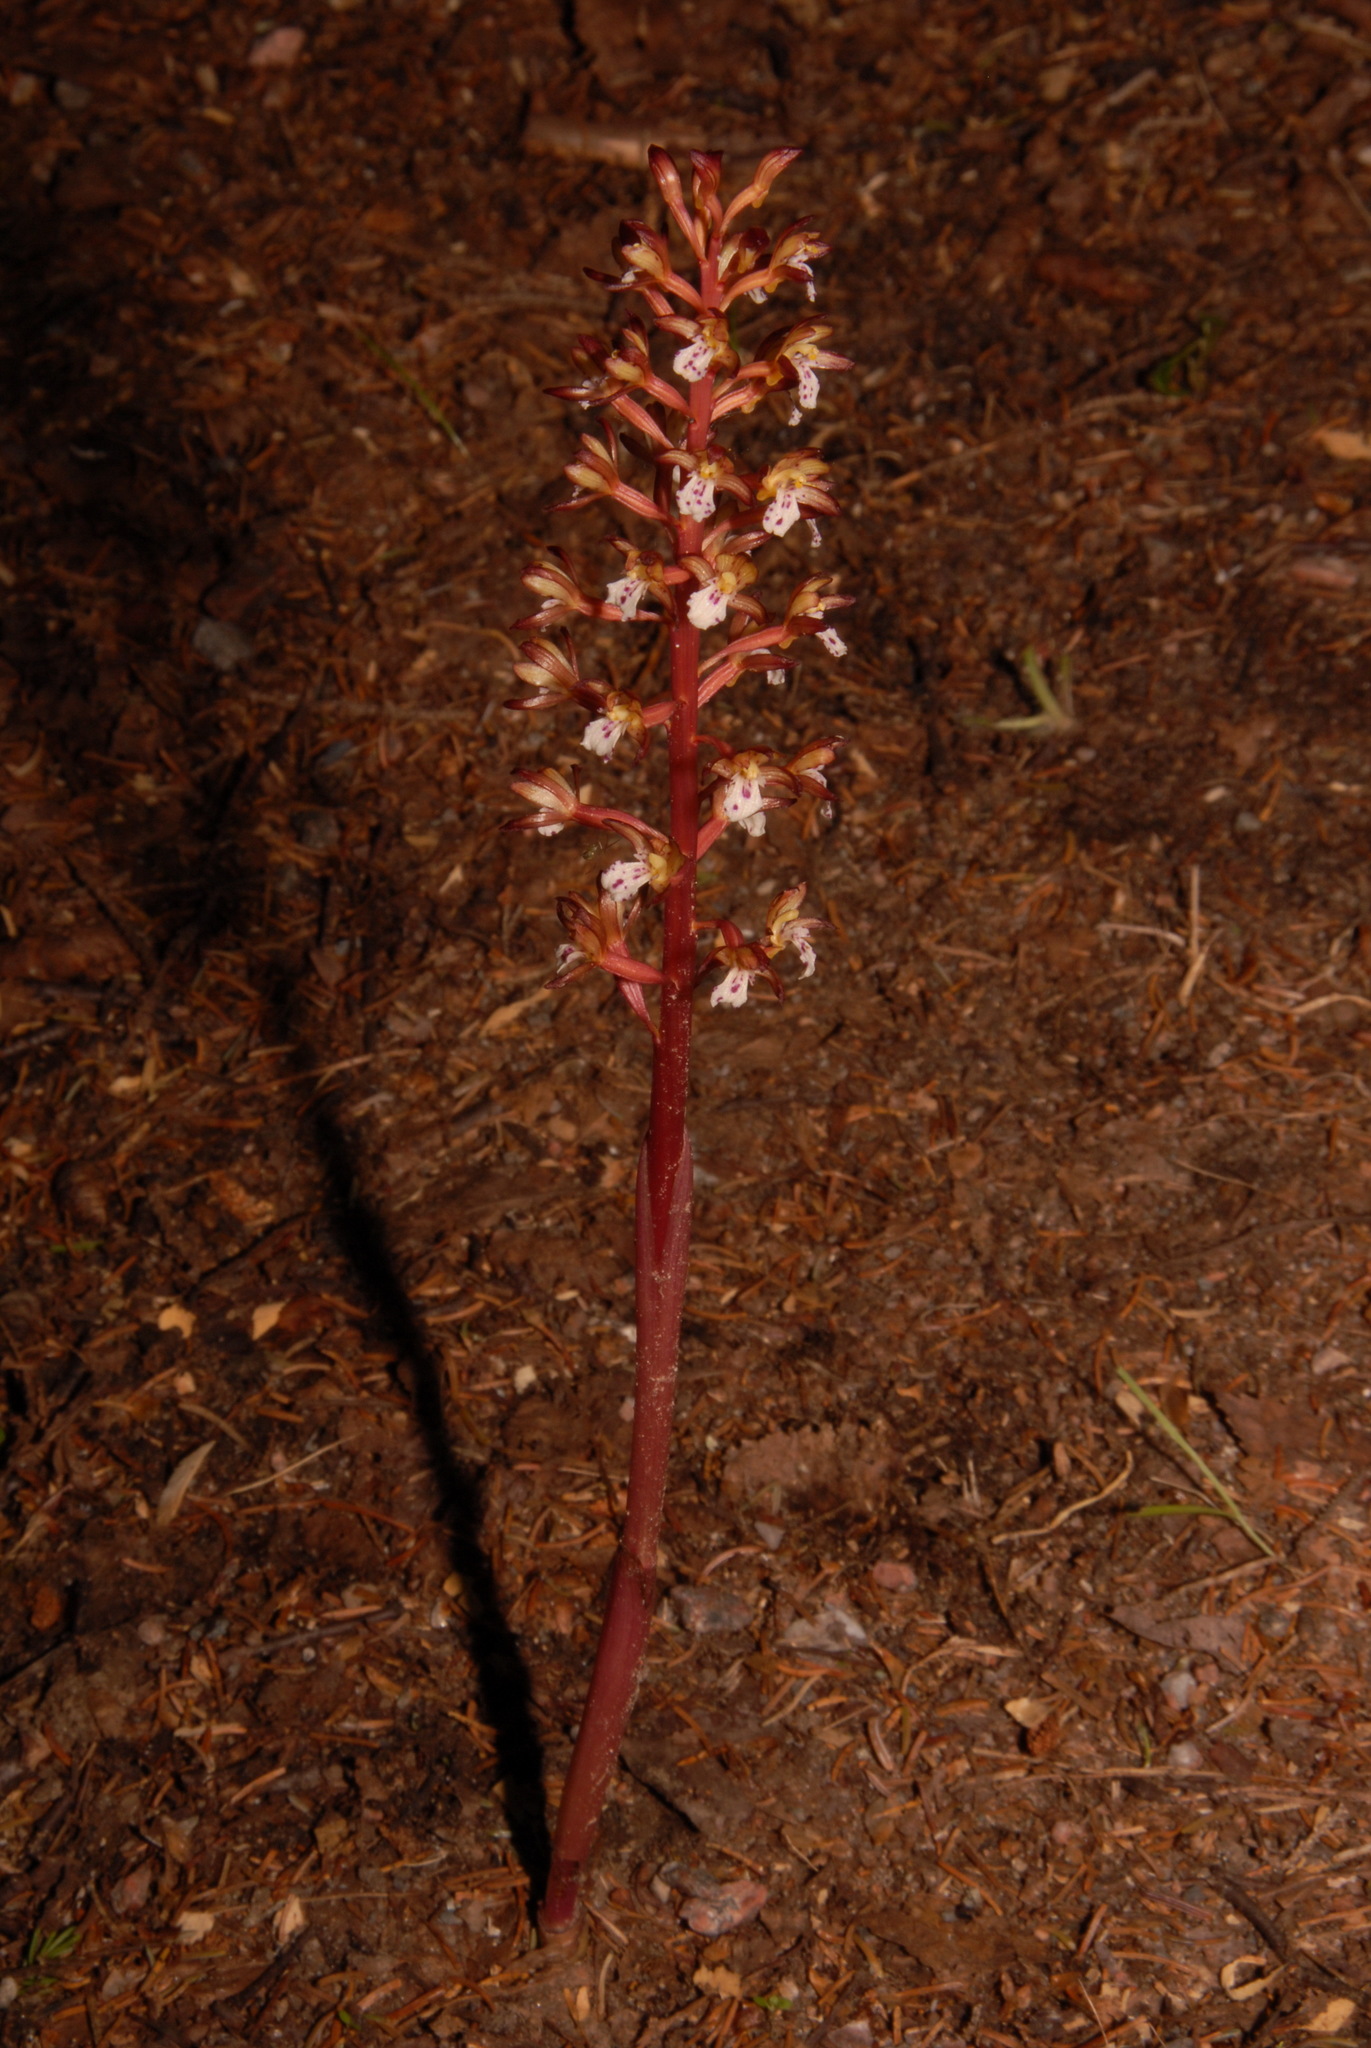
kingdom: Plantae
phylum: Tracheophyta
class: Liliopsida
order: Asparagales
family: Orchidaceae
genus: Corallorhiza
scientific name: Corallorhiza maculata
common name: Spotted coralroot
